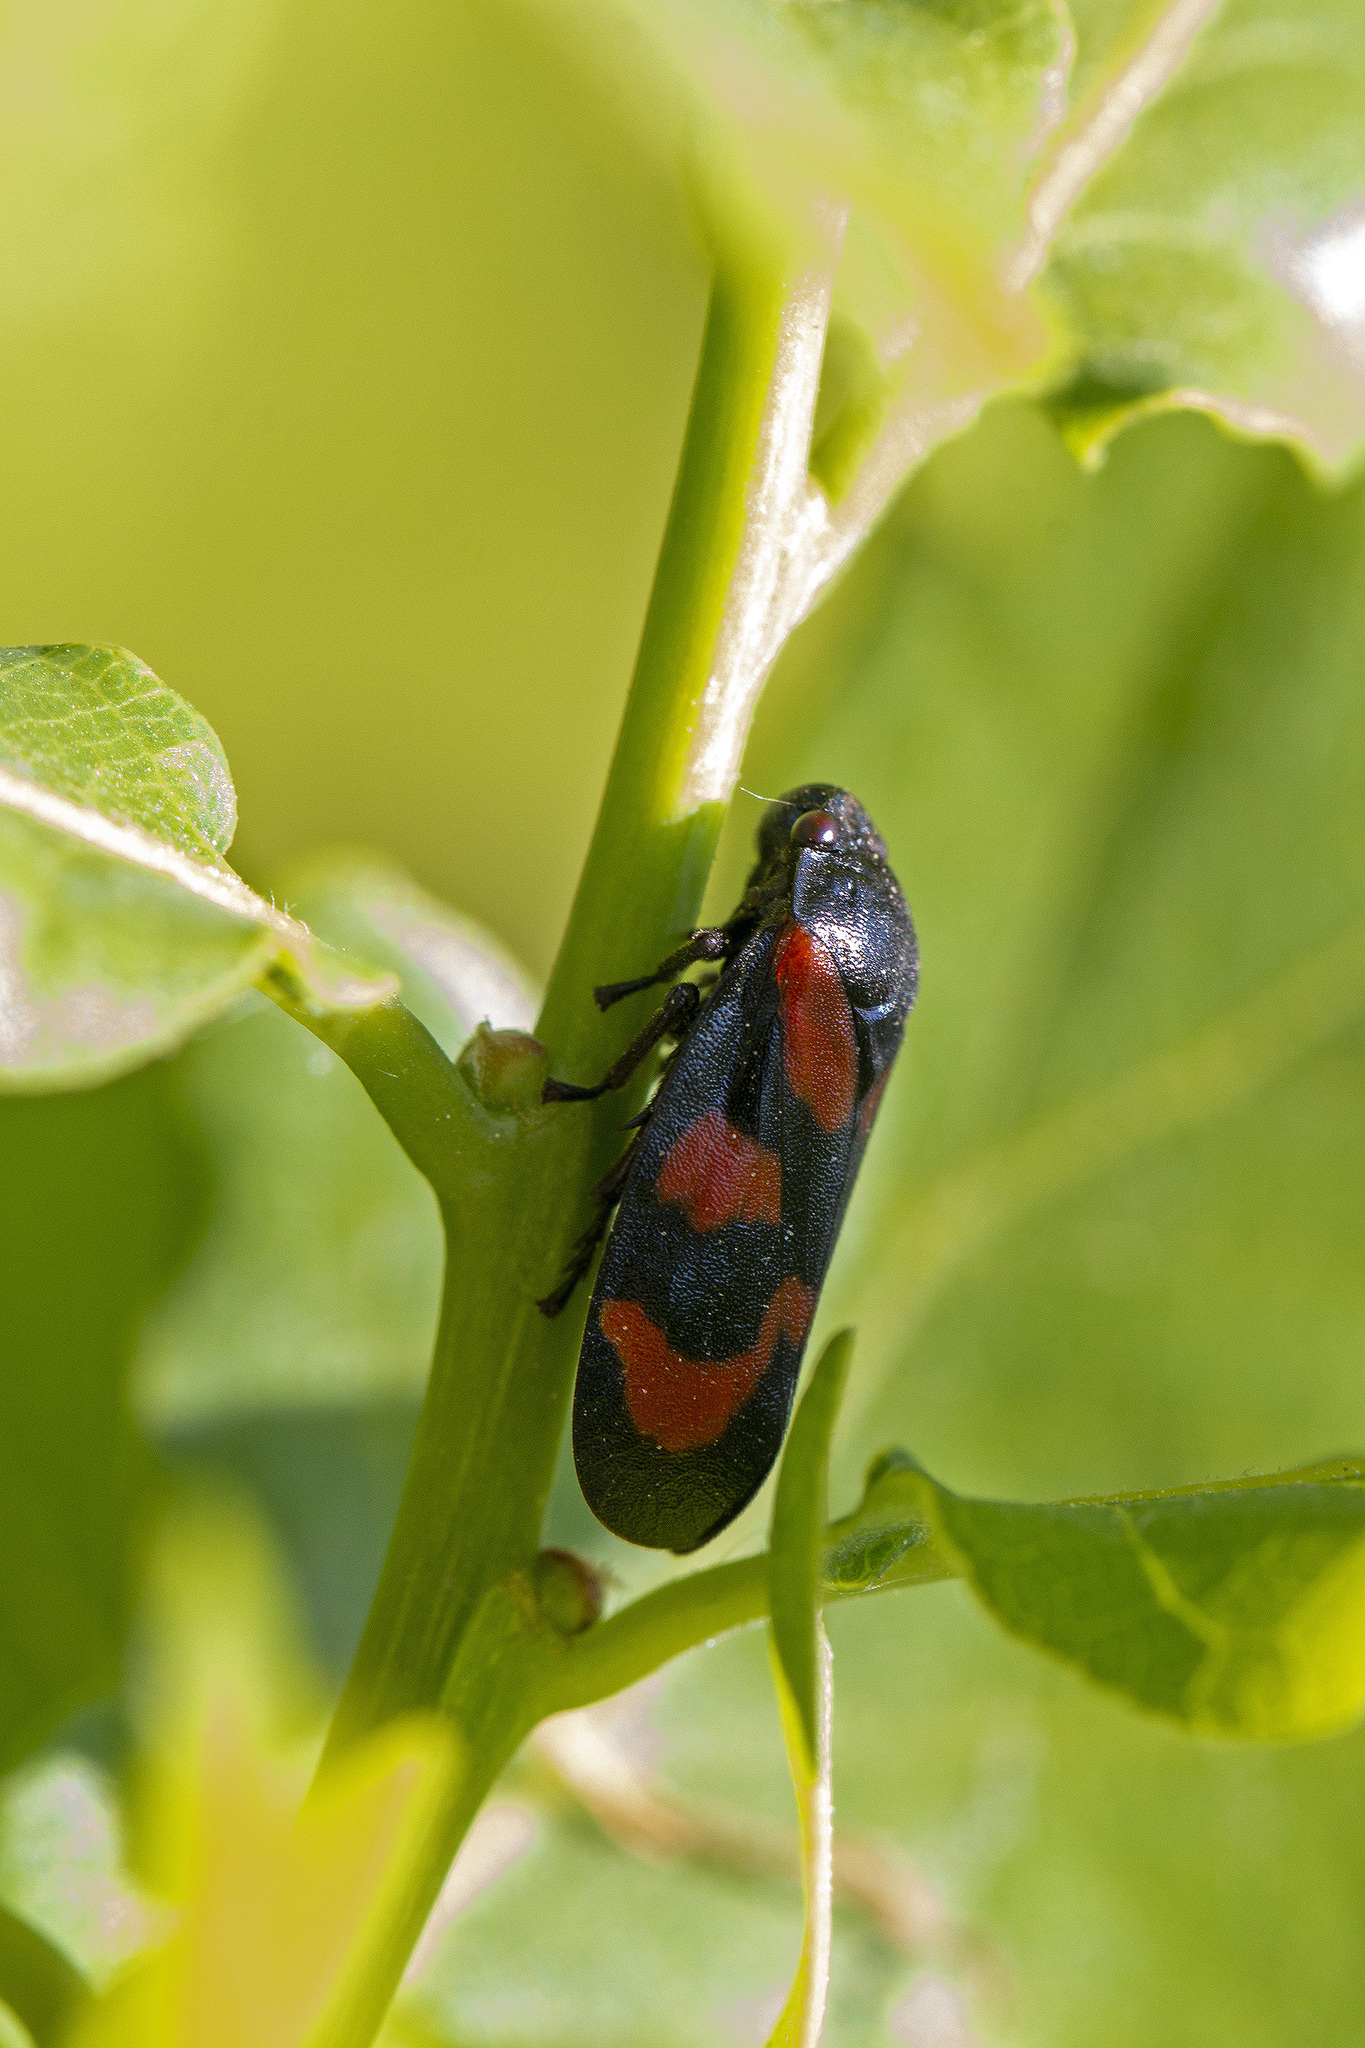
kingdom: Animalia
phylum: Arthropoda
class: Insecta
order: Hemiptera
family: Cercopidae
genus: Cercopis
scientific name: Cercopis vulnerata
